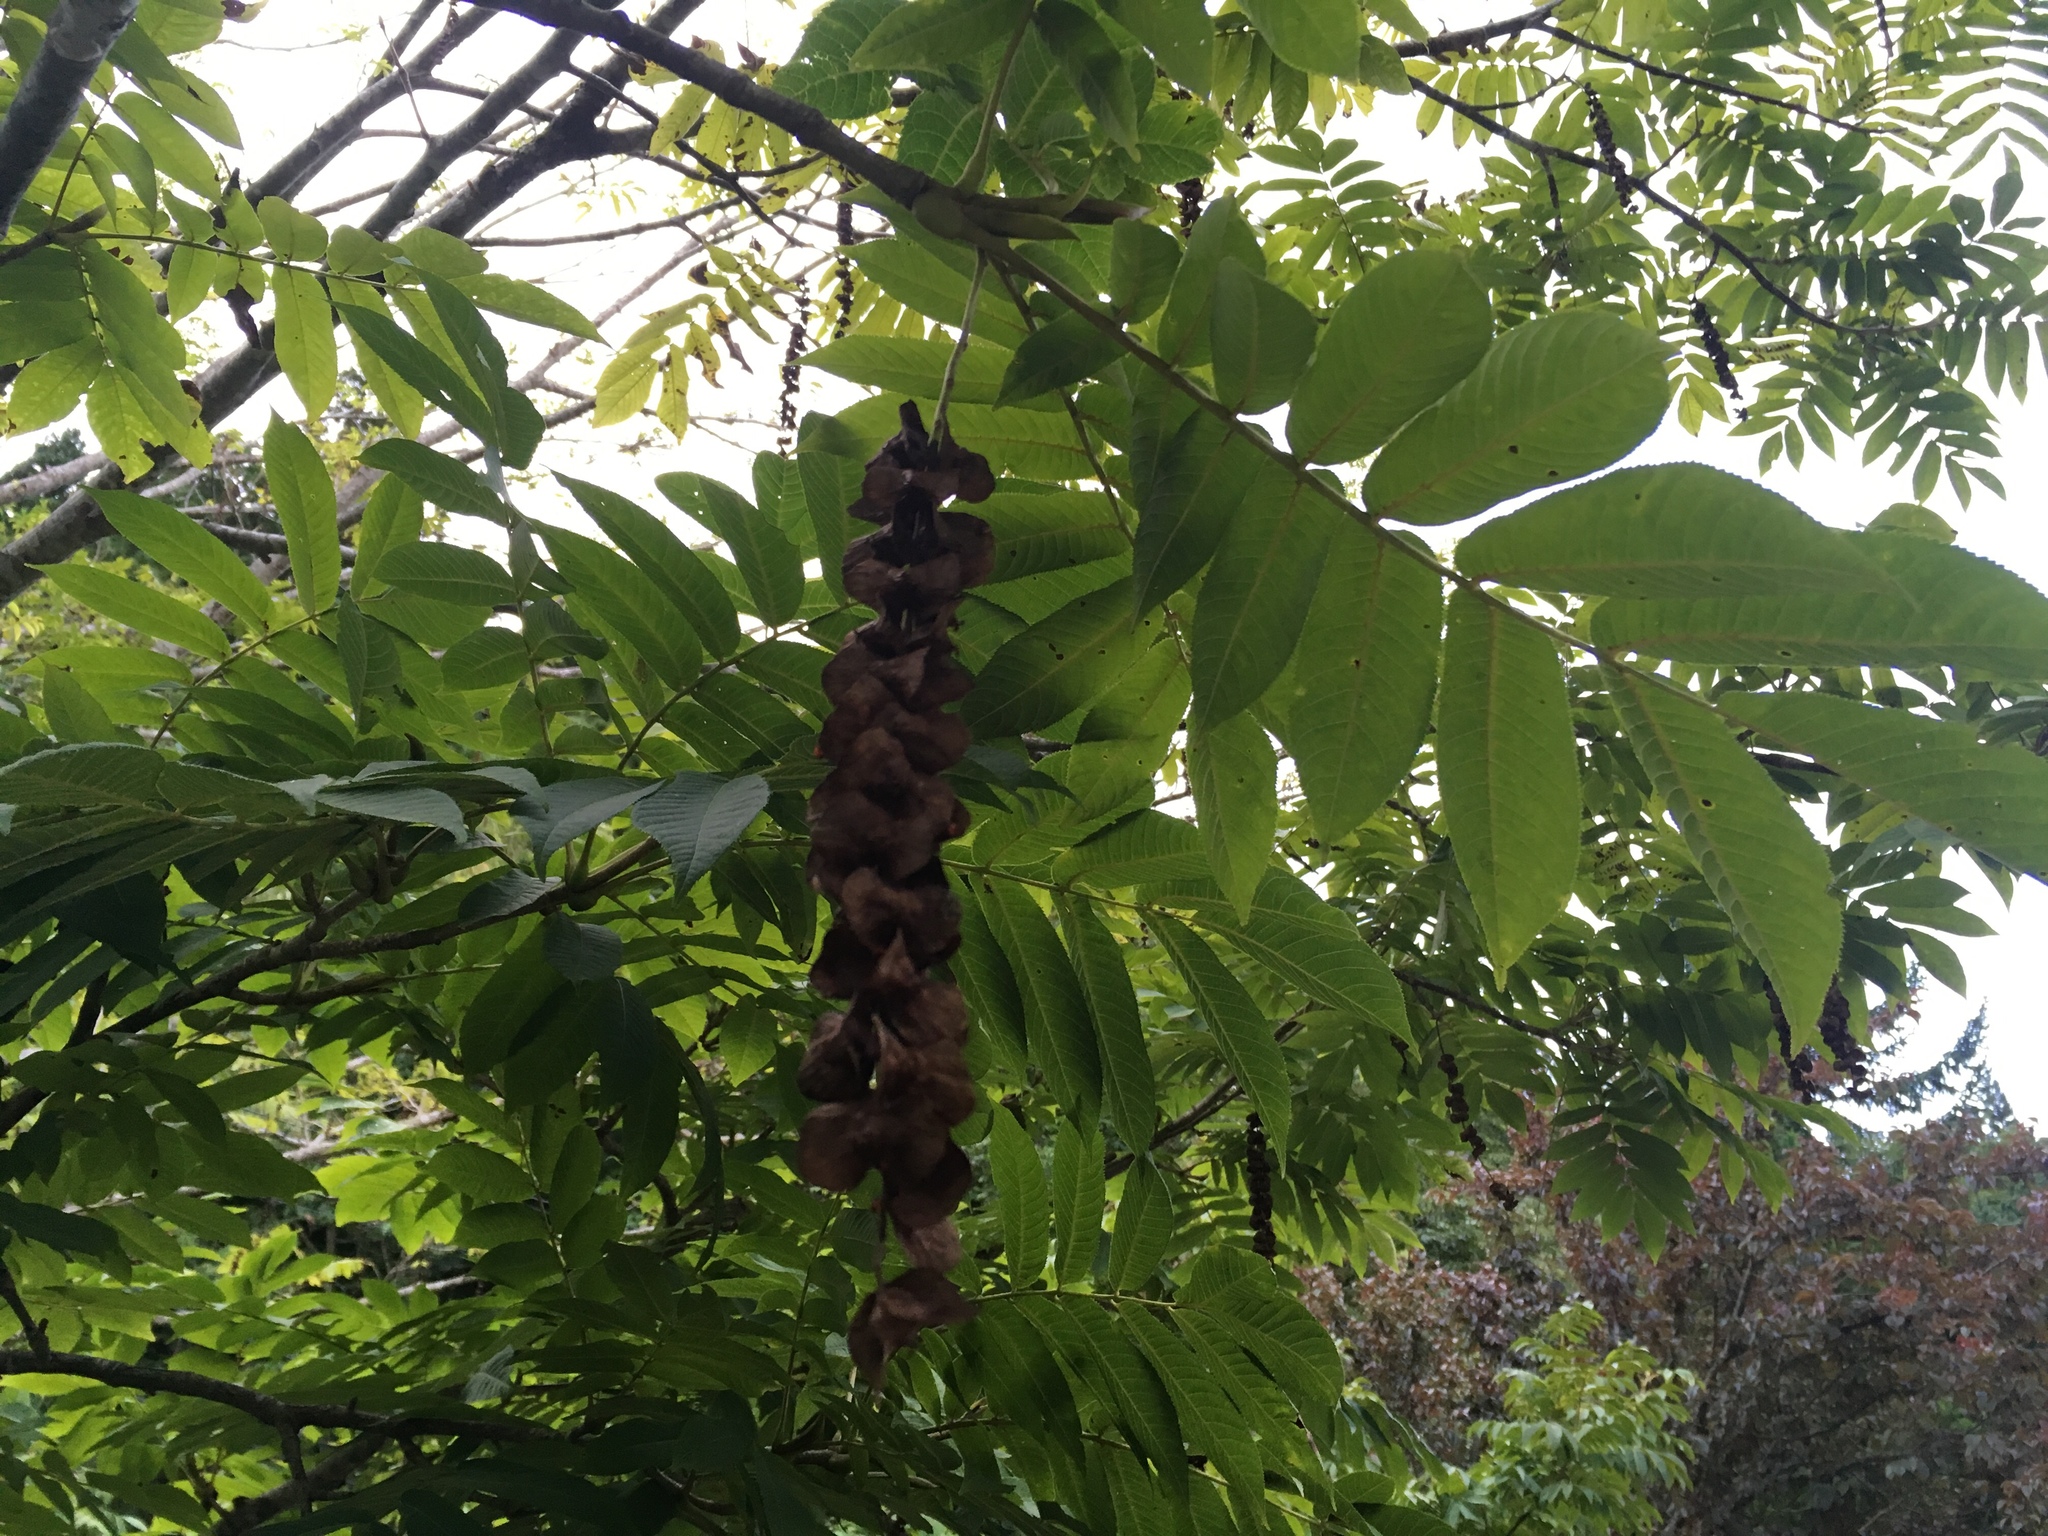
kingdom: Plantae
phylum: Tracheophyta
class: Magnoliopsida
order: Fagales
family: Juglandaceae
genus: Pterocarya
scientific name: Pterocarya rhoifolia
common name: Japanese wingnut
